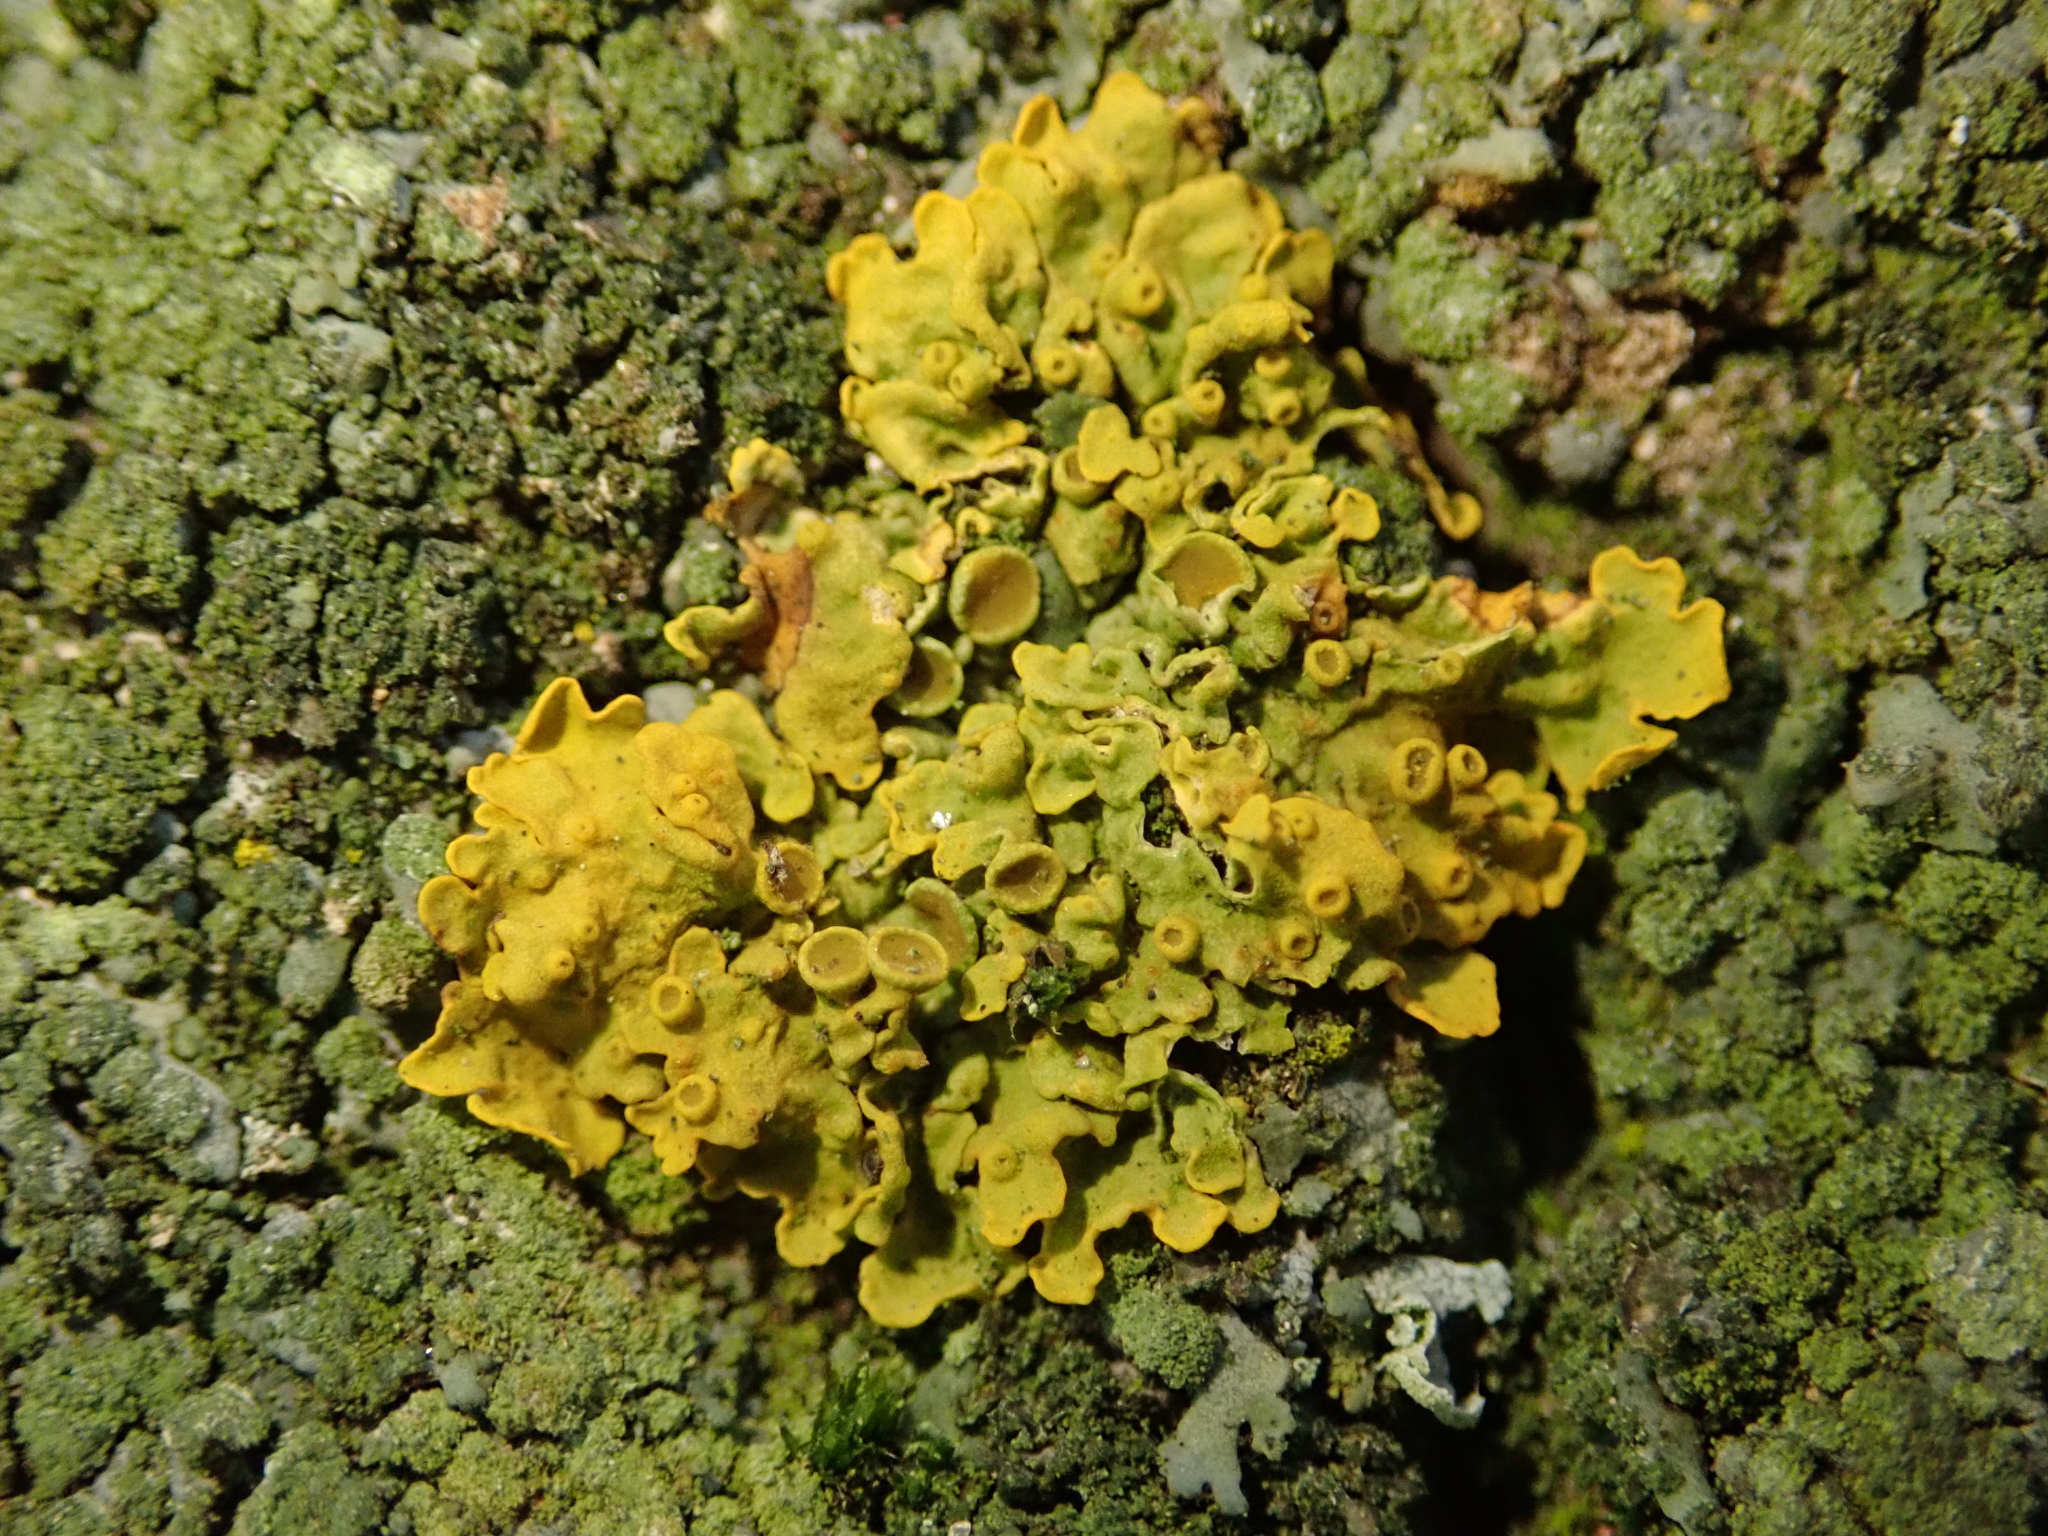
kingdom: Fungi
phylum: Ascomycota
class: Lecanoromycetes
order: Teloschistales
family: Teloschistaceae
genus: Xanthoria
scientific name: Xanthoria parietina
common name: Common orange lichen
